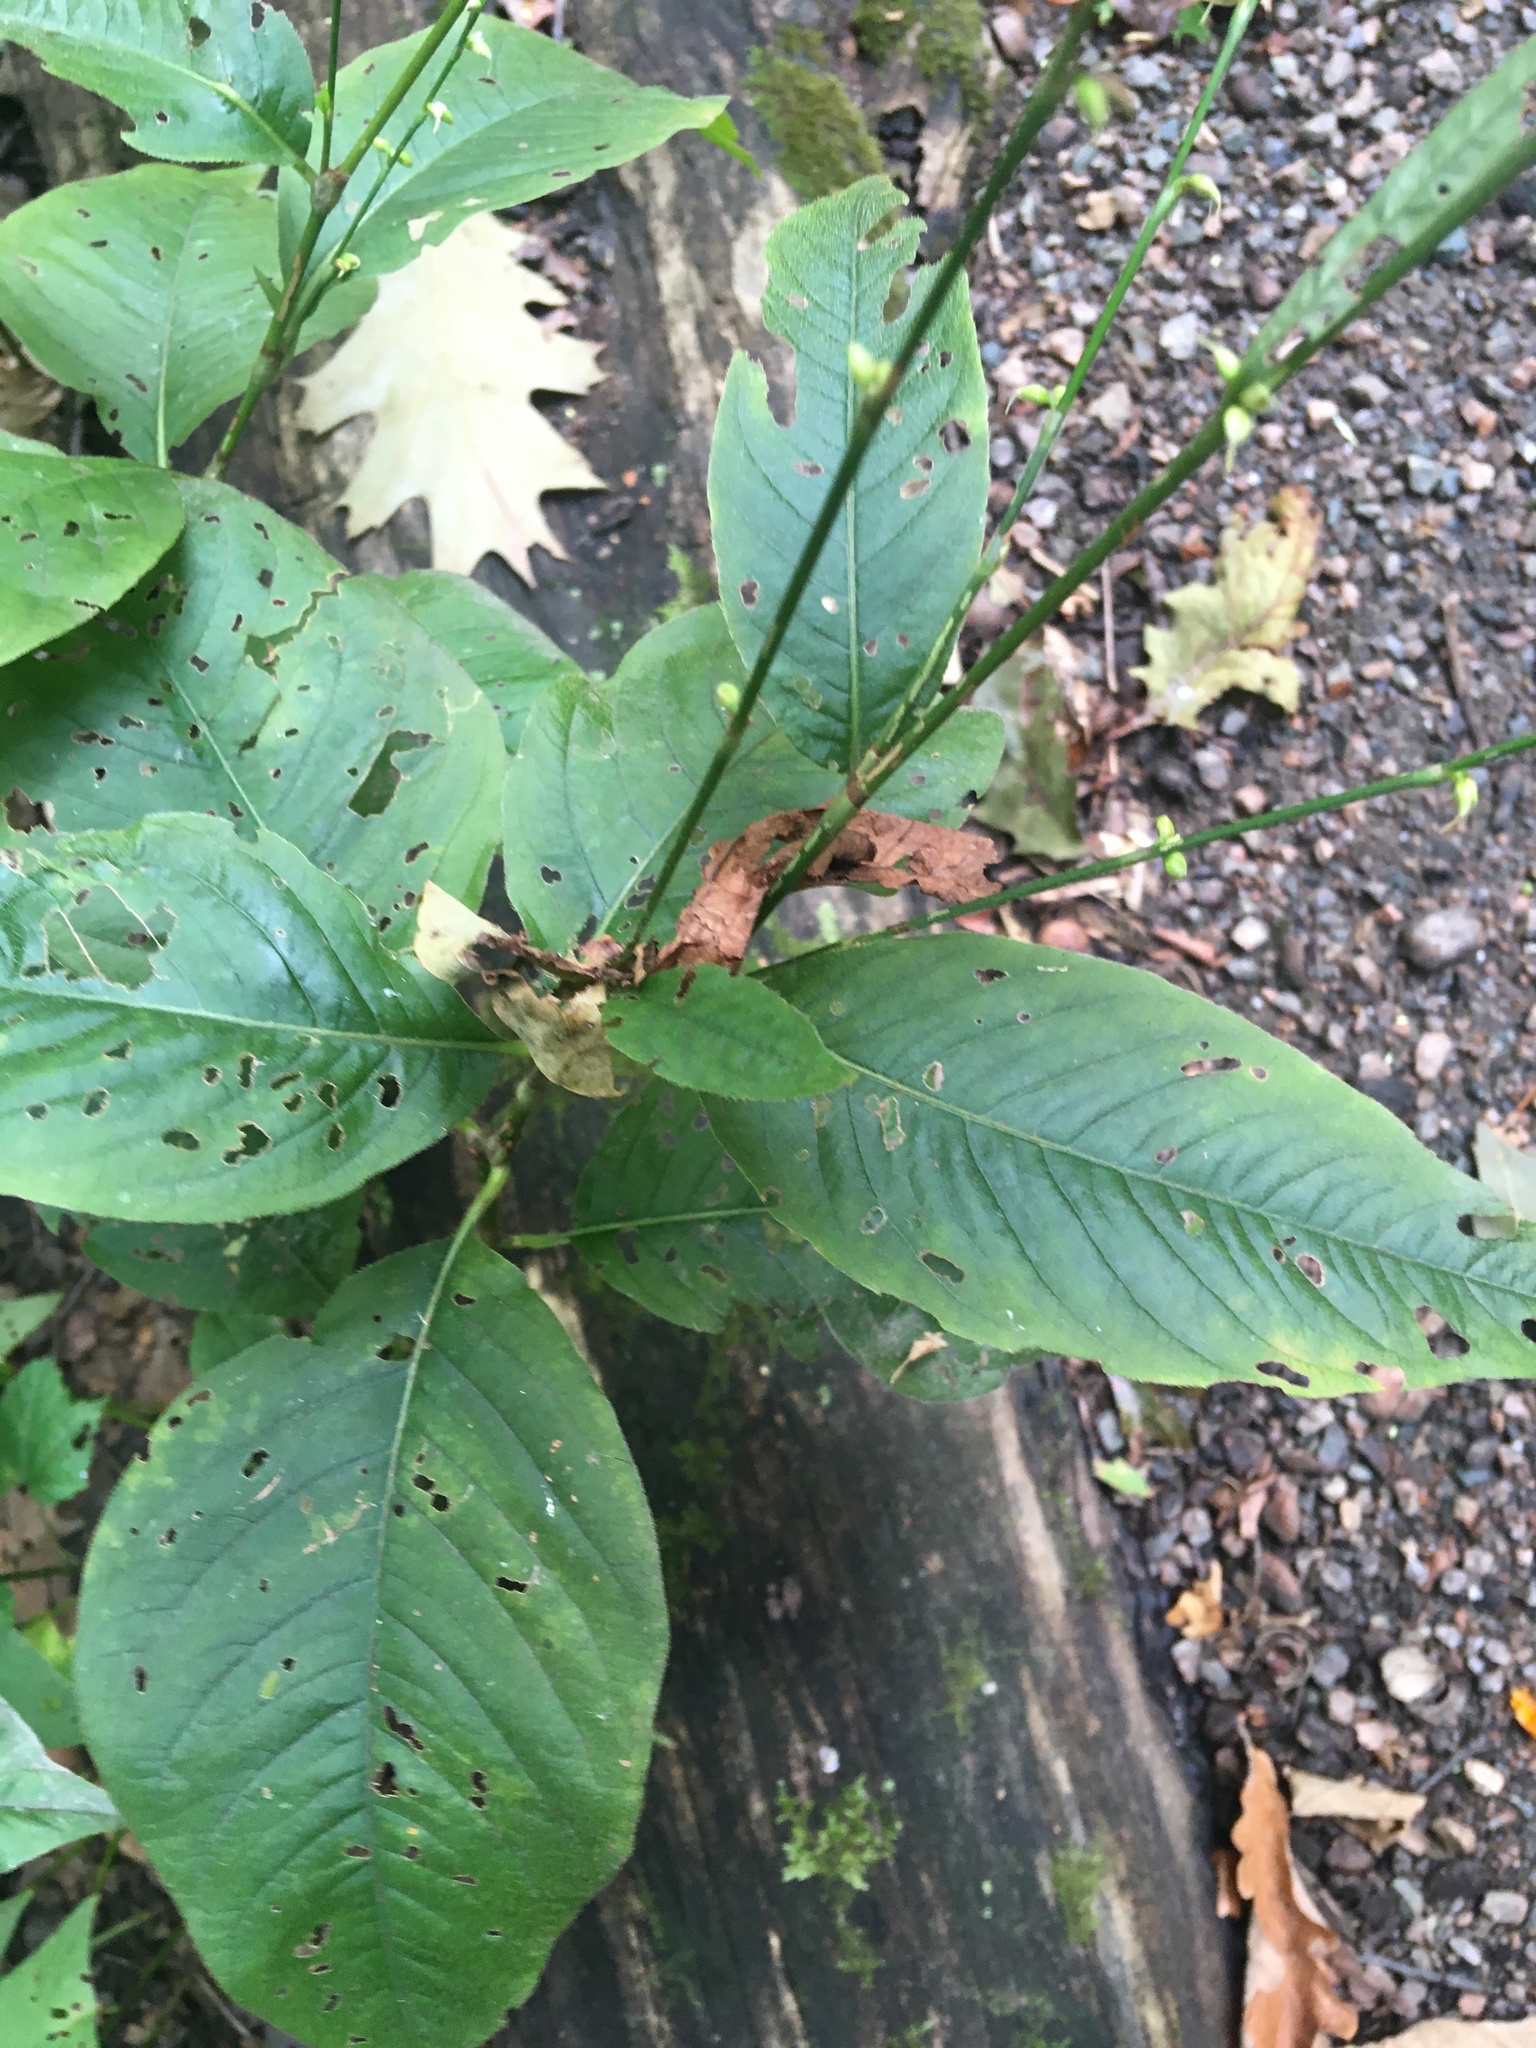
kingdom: Plantae
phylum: Tracheophyta
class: Magnoliopsida
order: Caryophyllales
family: Polygonaceae
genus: Persicaria
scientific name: Persicaria virginiana
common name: Jumpseed
